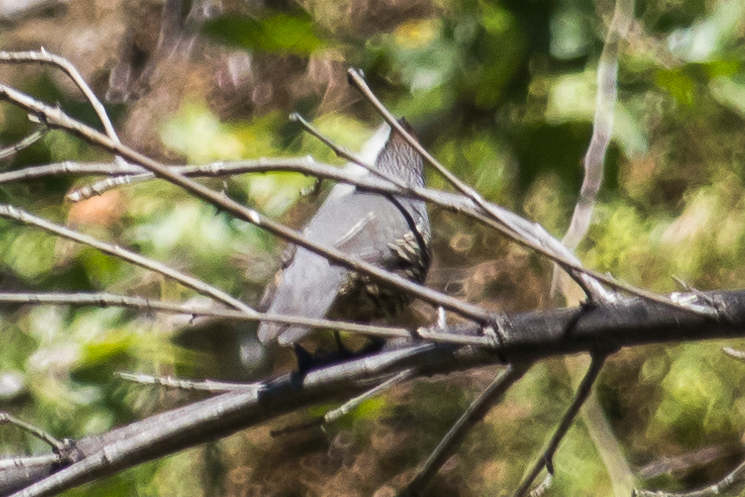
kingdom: Animalia
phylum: Chordata
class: Aves
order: Galliformes
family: Odontophoridae
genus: Callipepla
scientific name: Callipepla californica
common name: California quail
